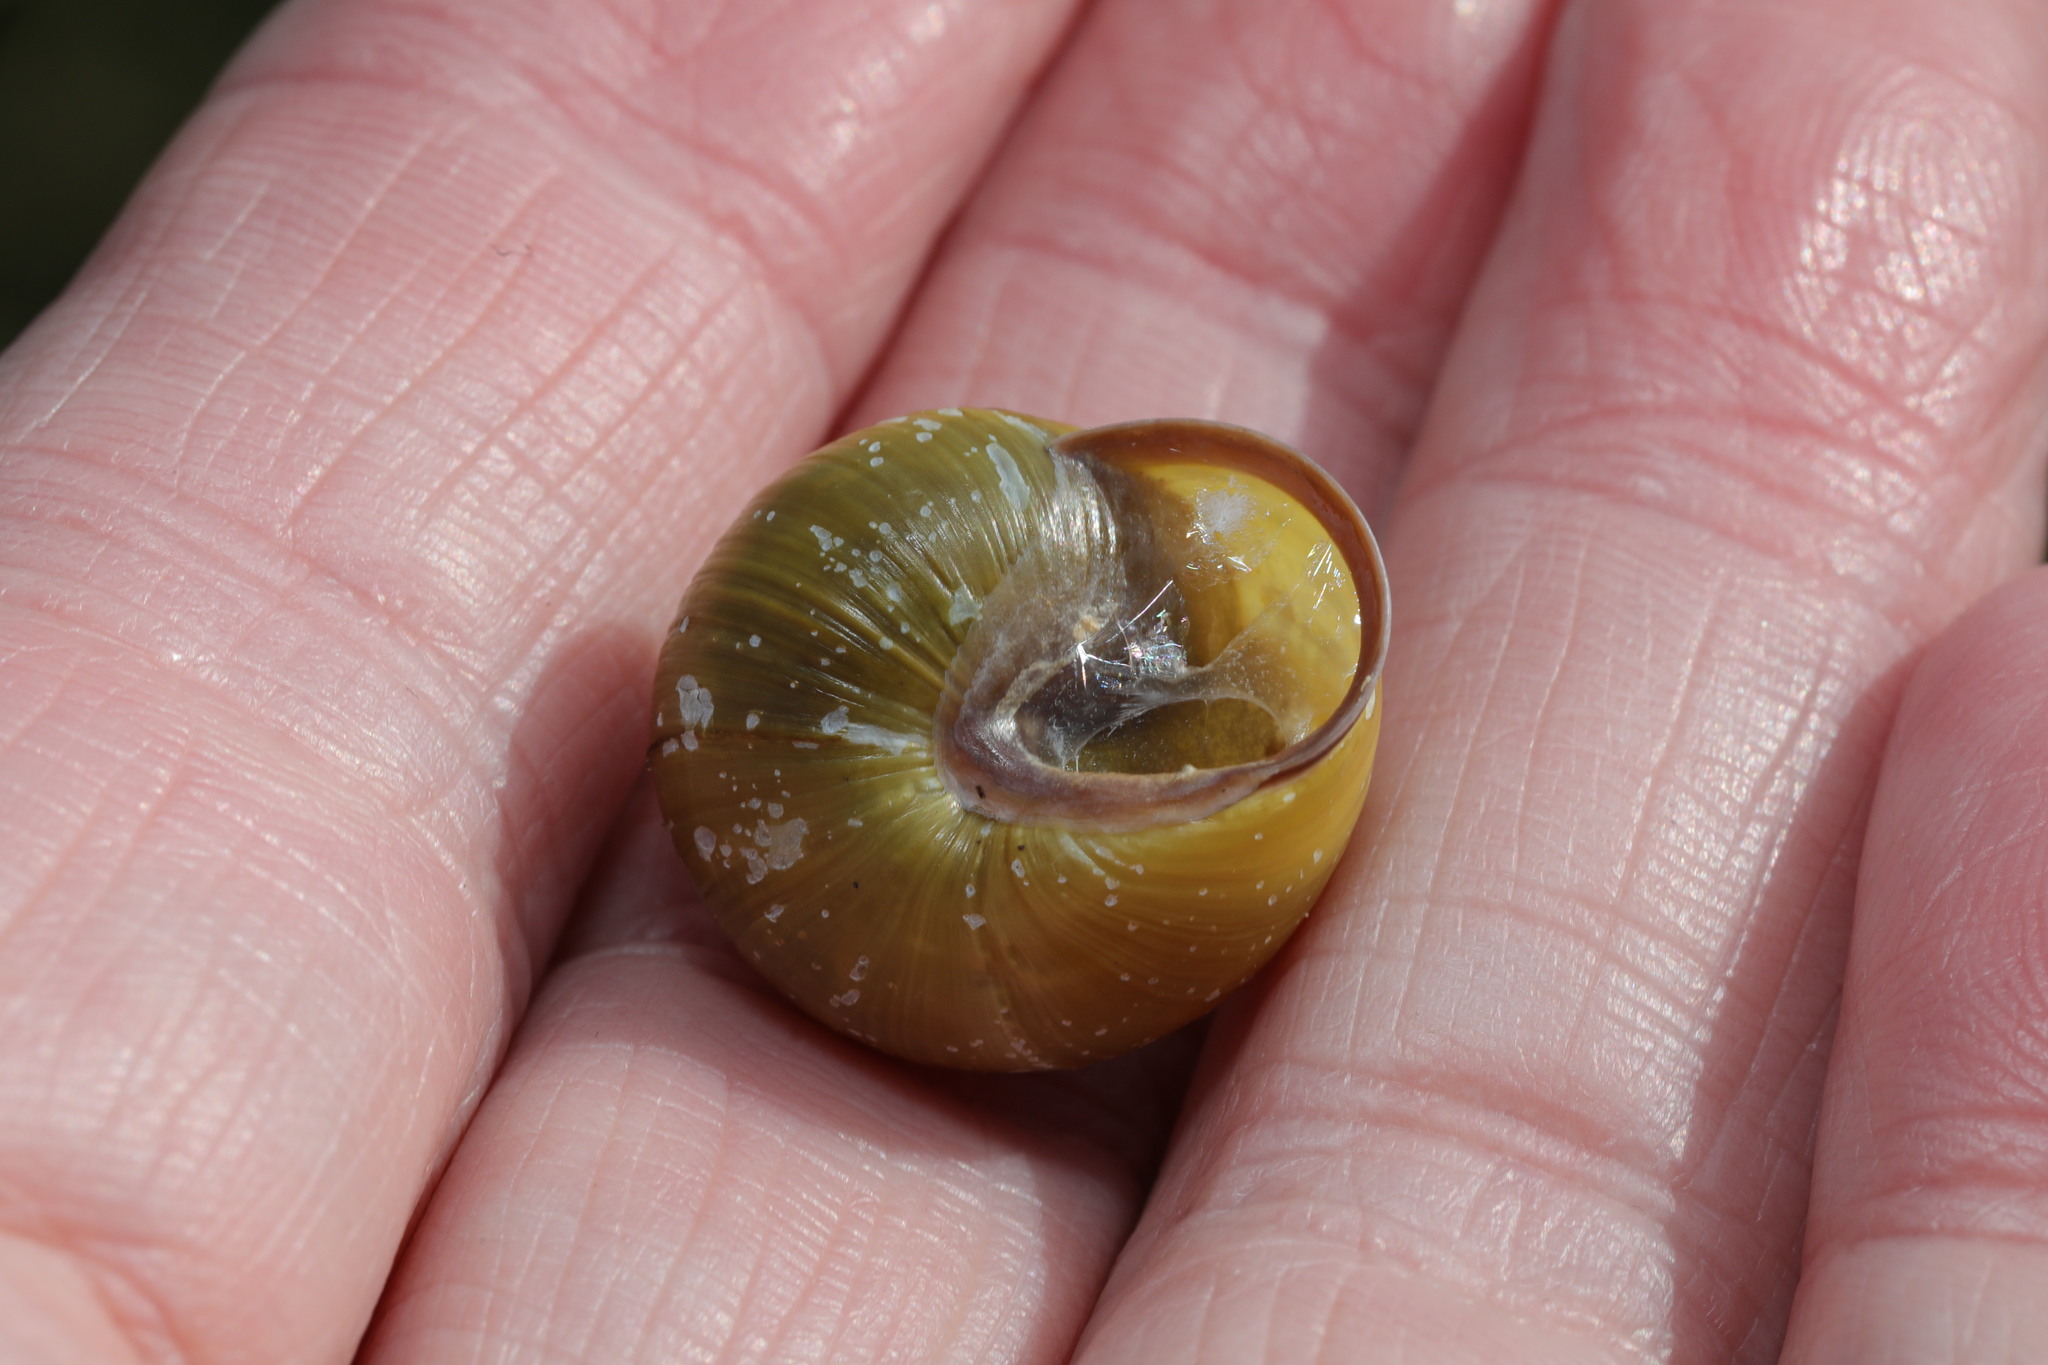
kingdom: Animalia
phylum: Mollusca
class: Gastropoda
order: Stylommatophora
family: Helicidae
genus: Cepaea
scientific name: Cepaea nemoralis
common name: Grovesnail
